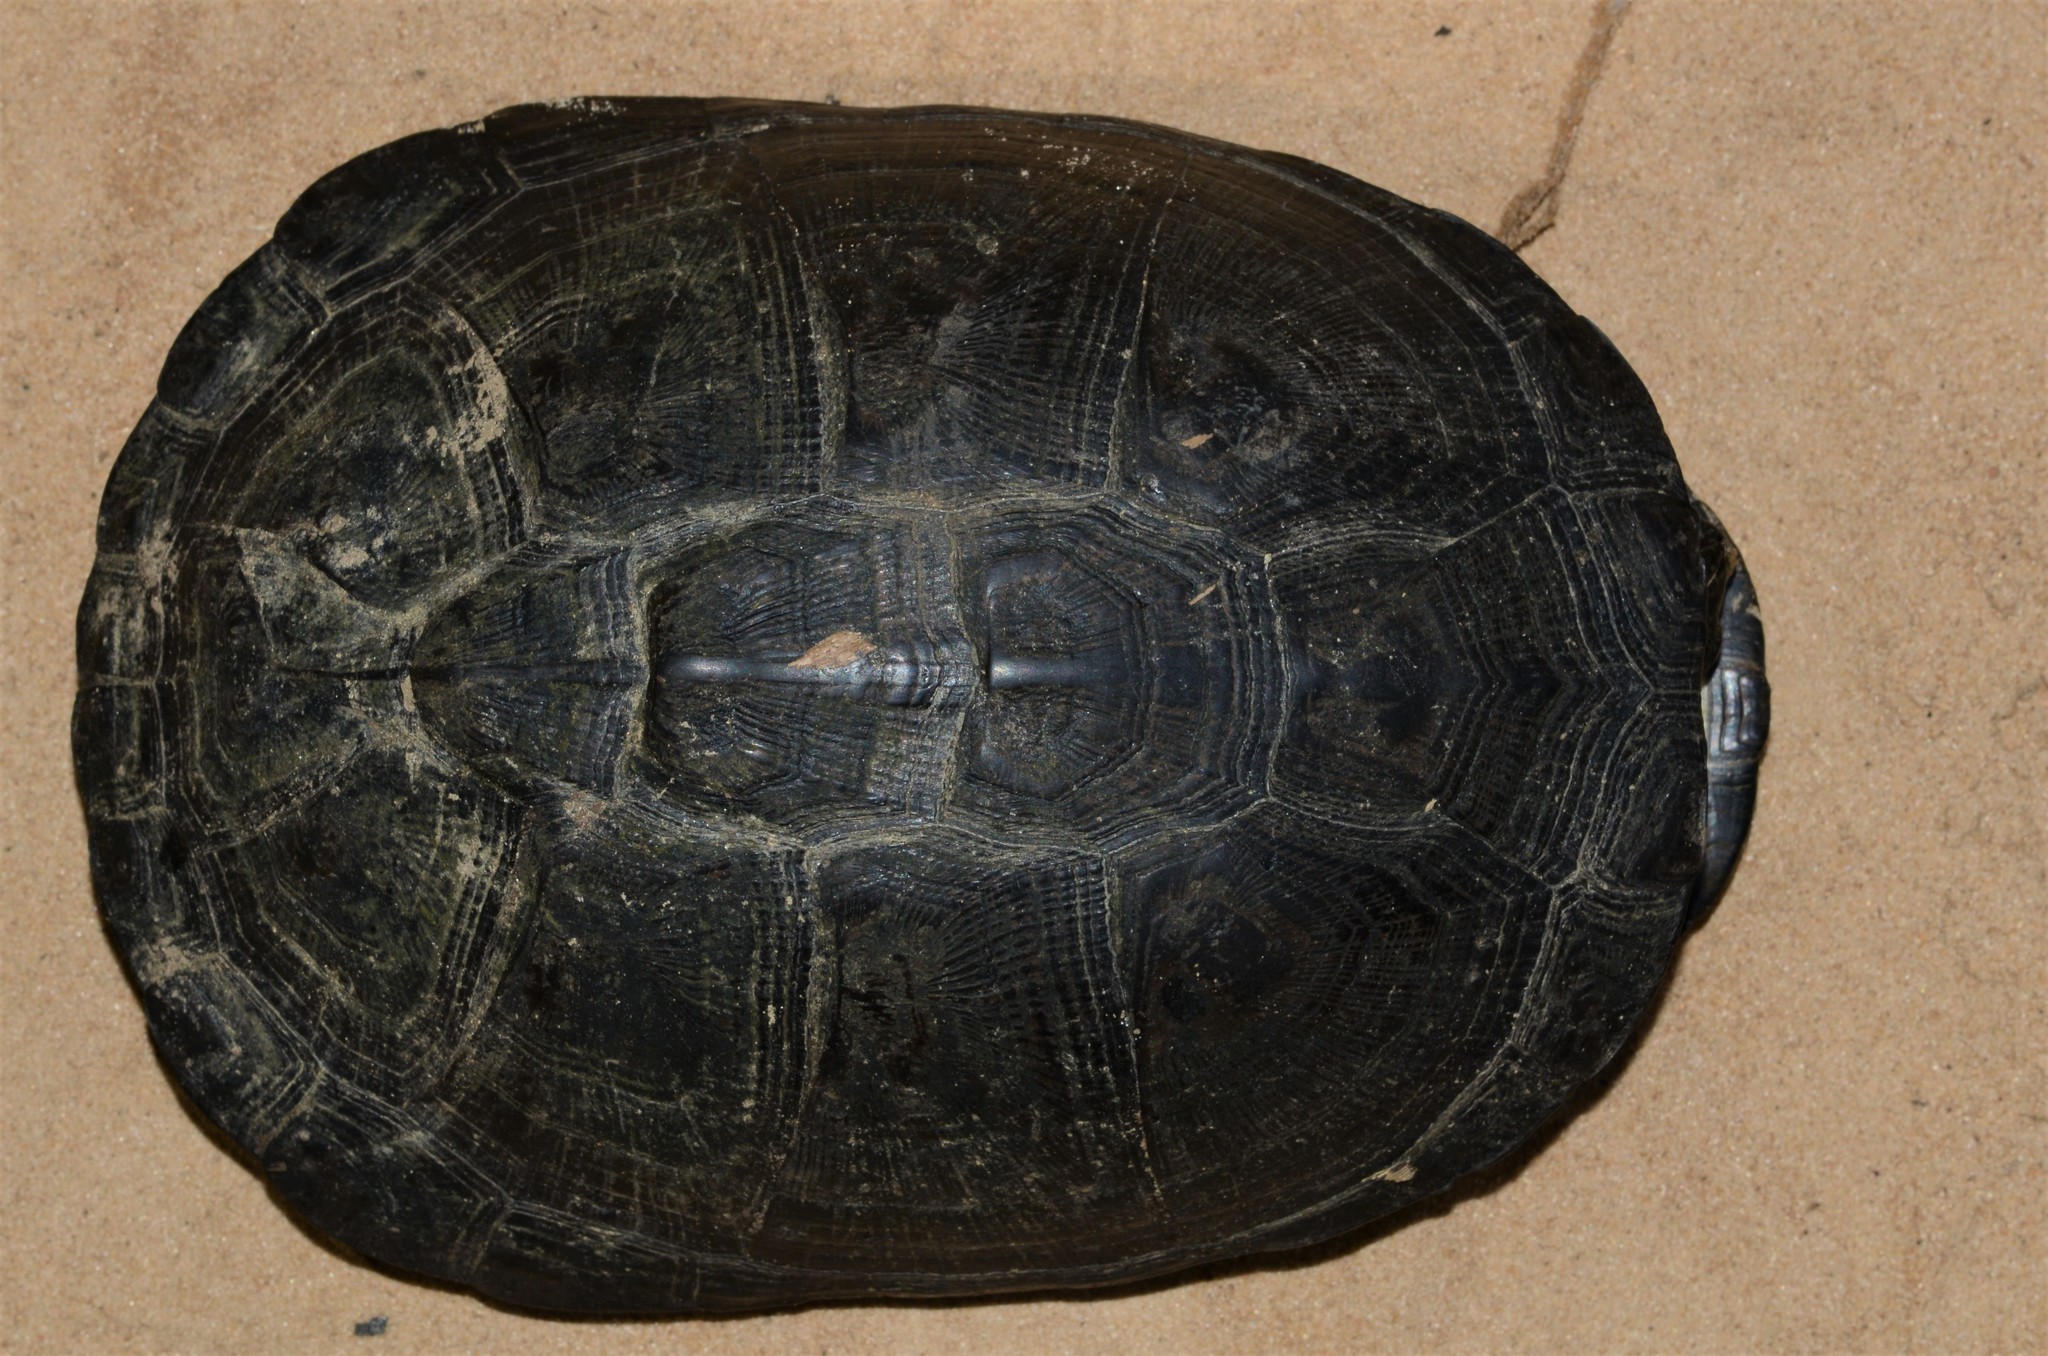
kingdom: Animalia
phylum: Chordata
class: Testudines
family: Pelomedusidae
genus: Pelusios
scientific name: Pelusios castaneus
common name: West african mud turtle
